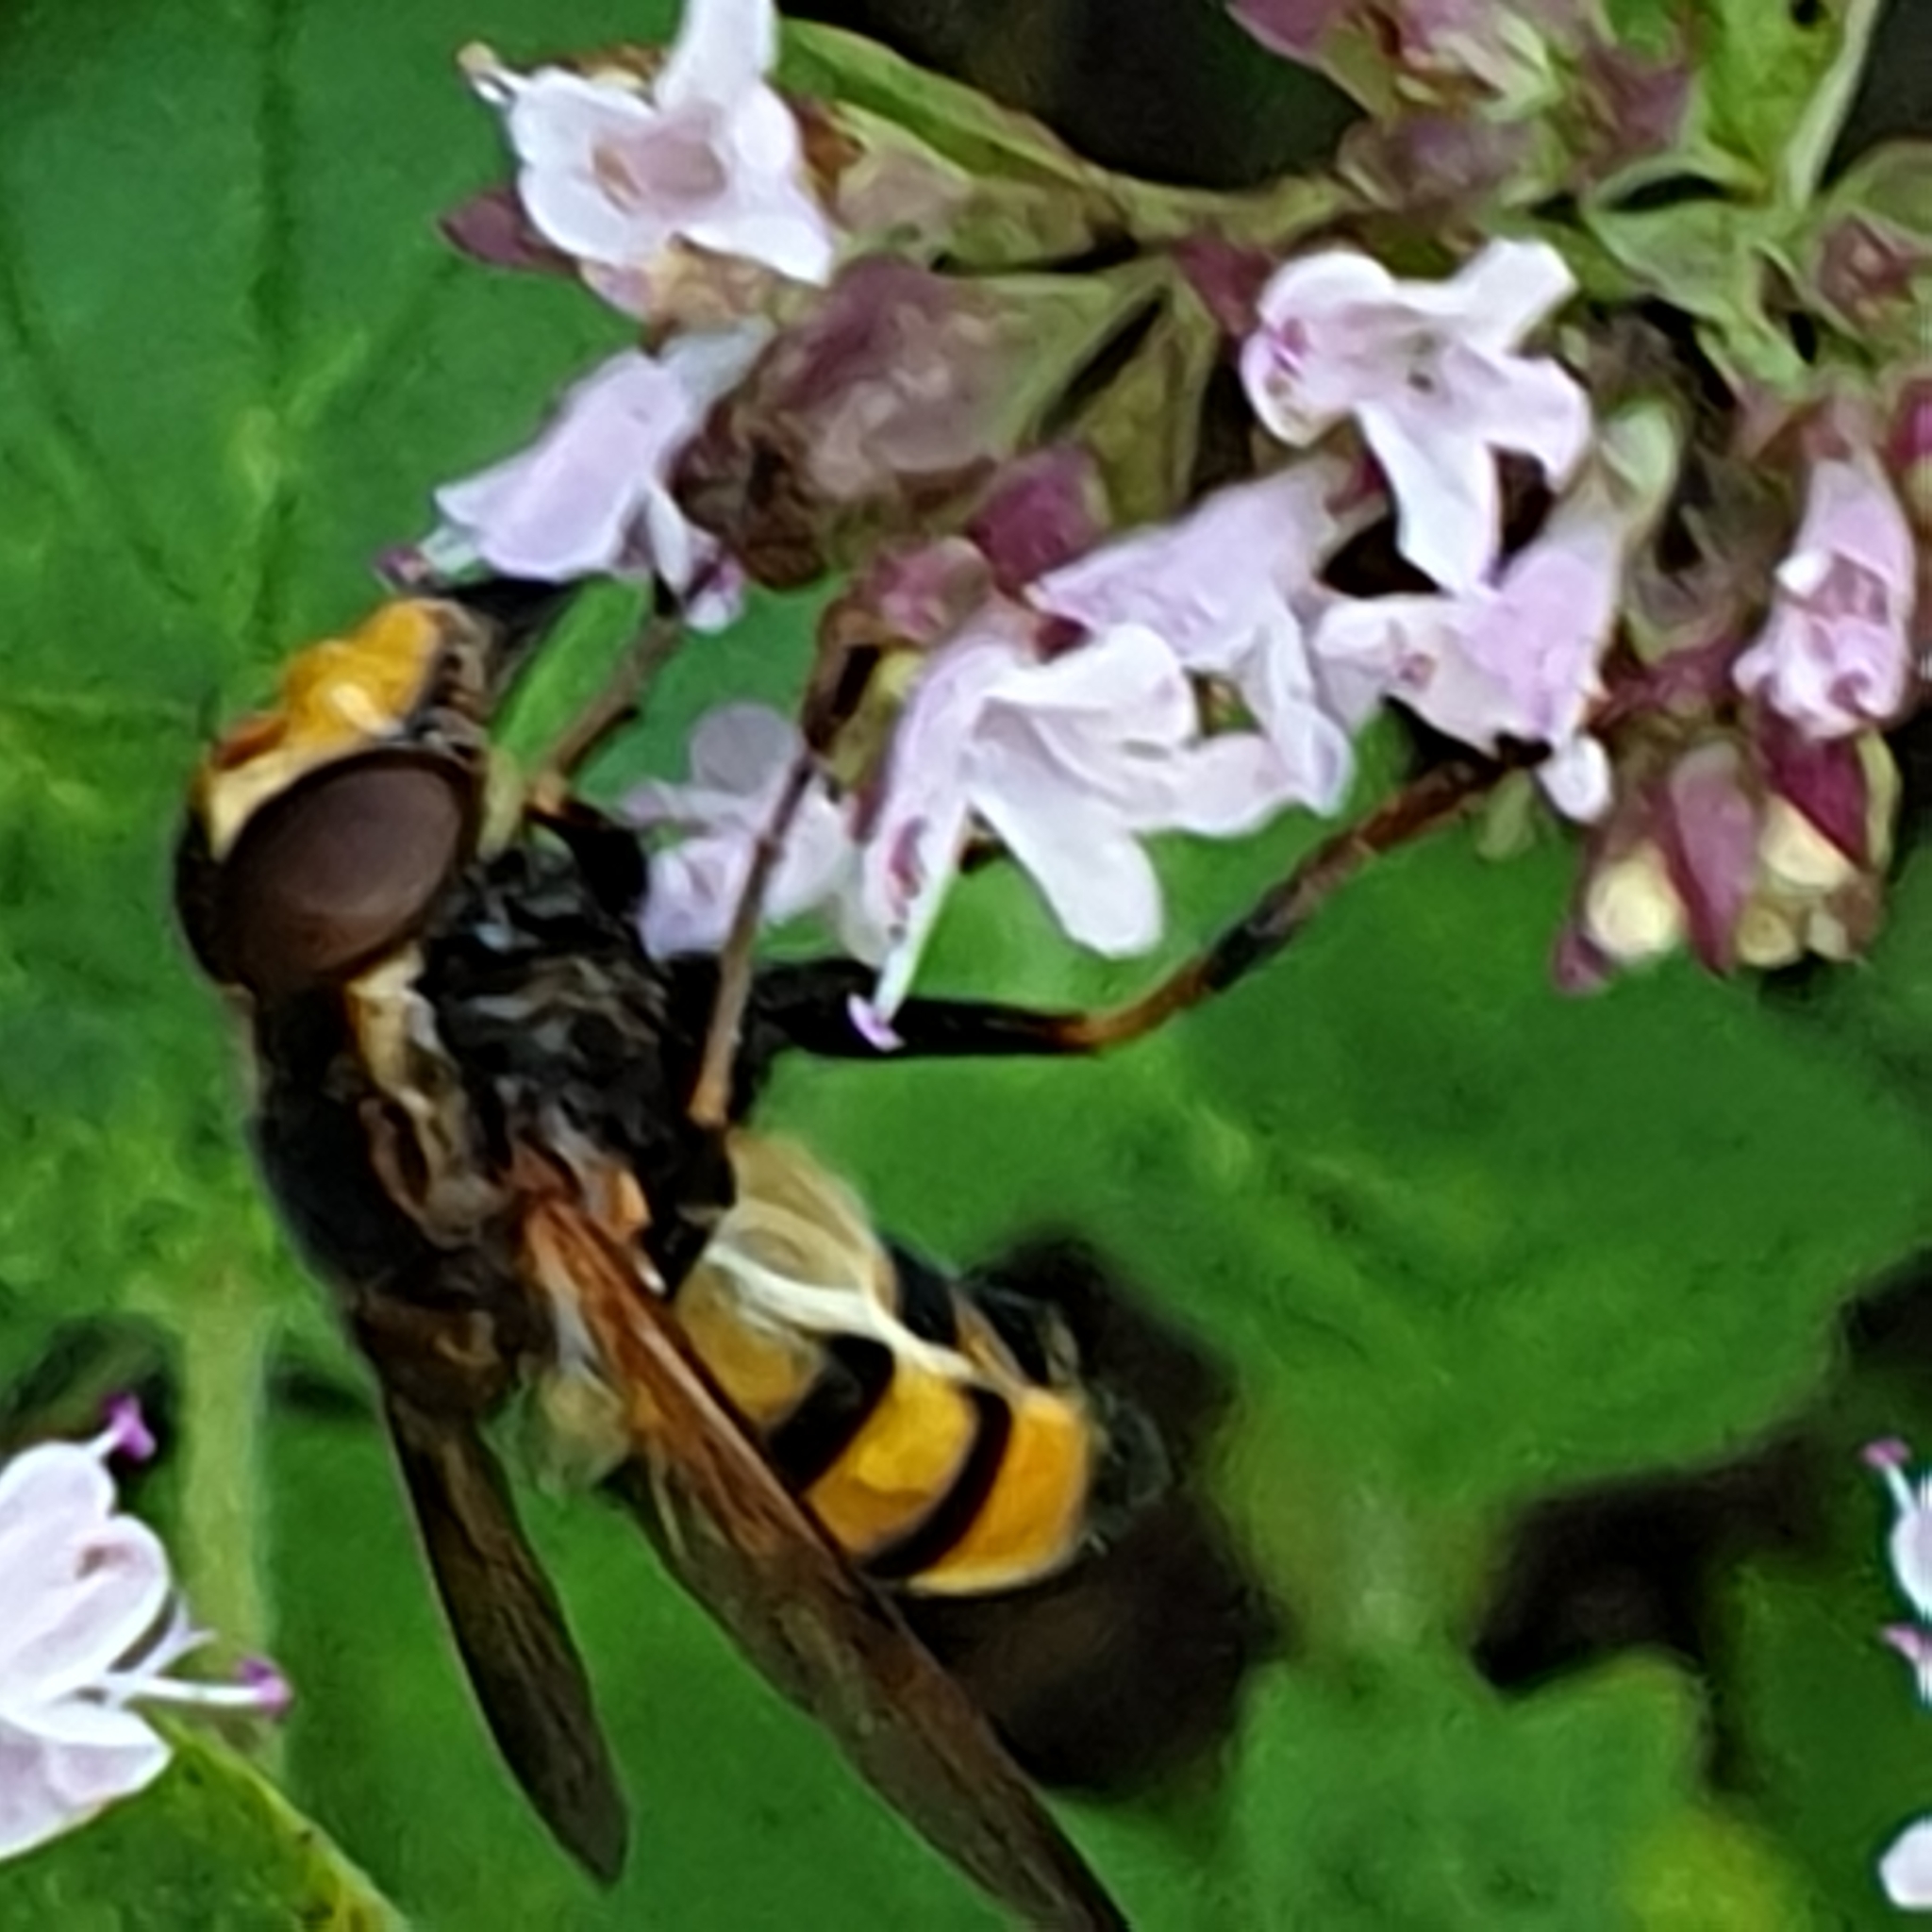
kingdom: Animalia
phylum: Arthropoda
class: Insecta
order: Diptera
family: Syrphidae
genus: Volucella
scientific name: Volucella inanis
